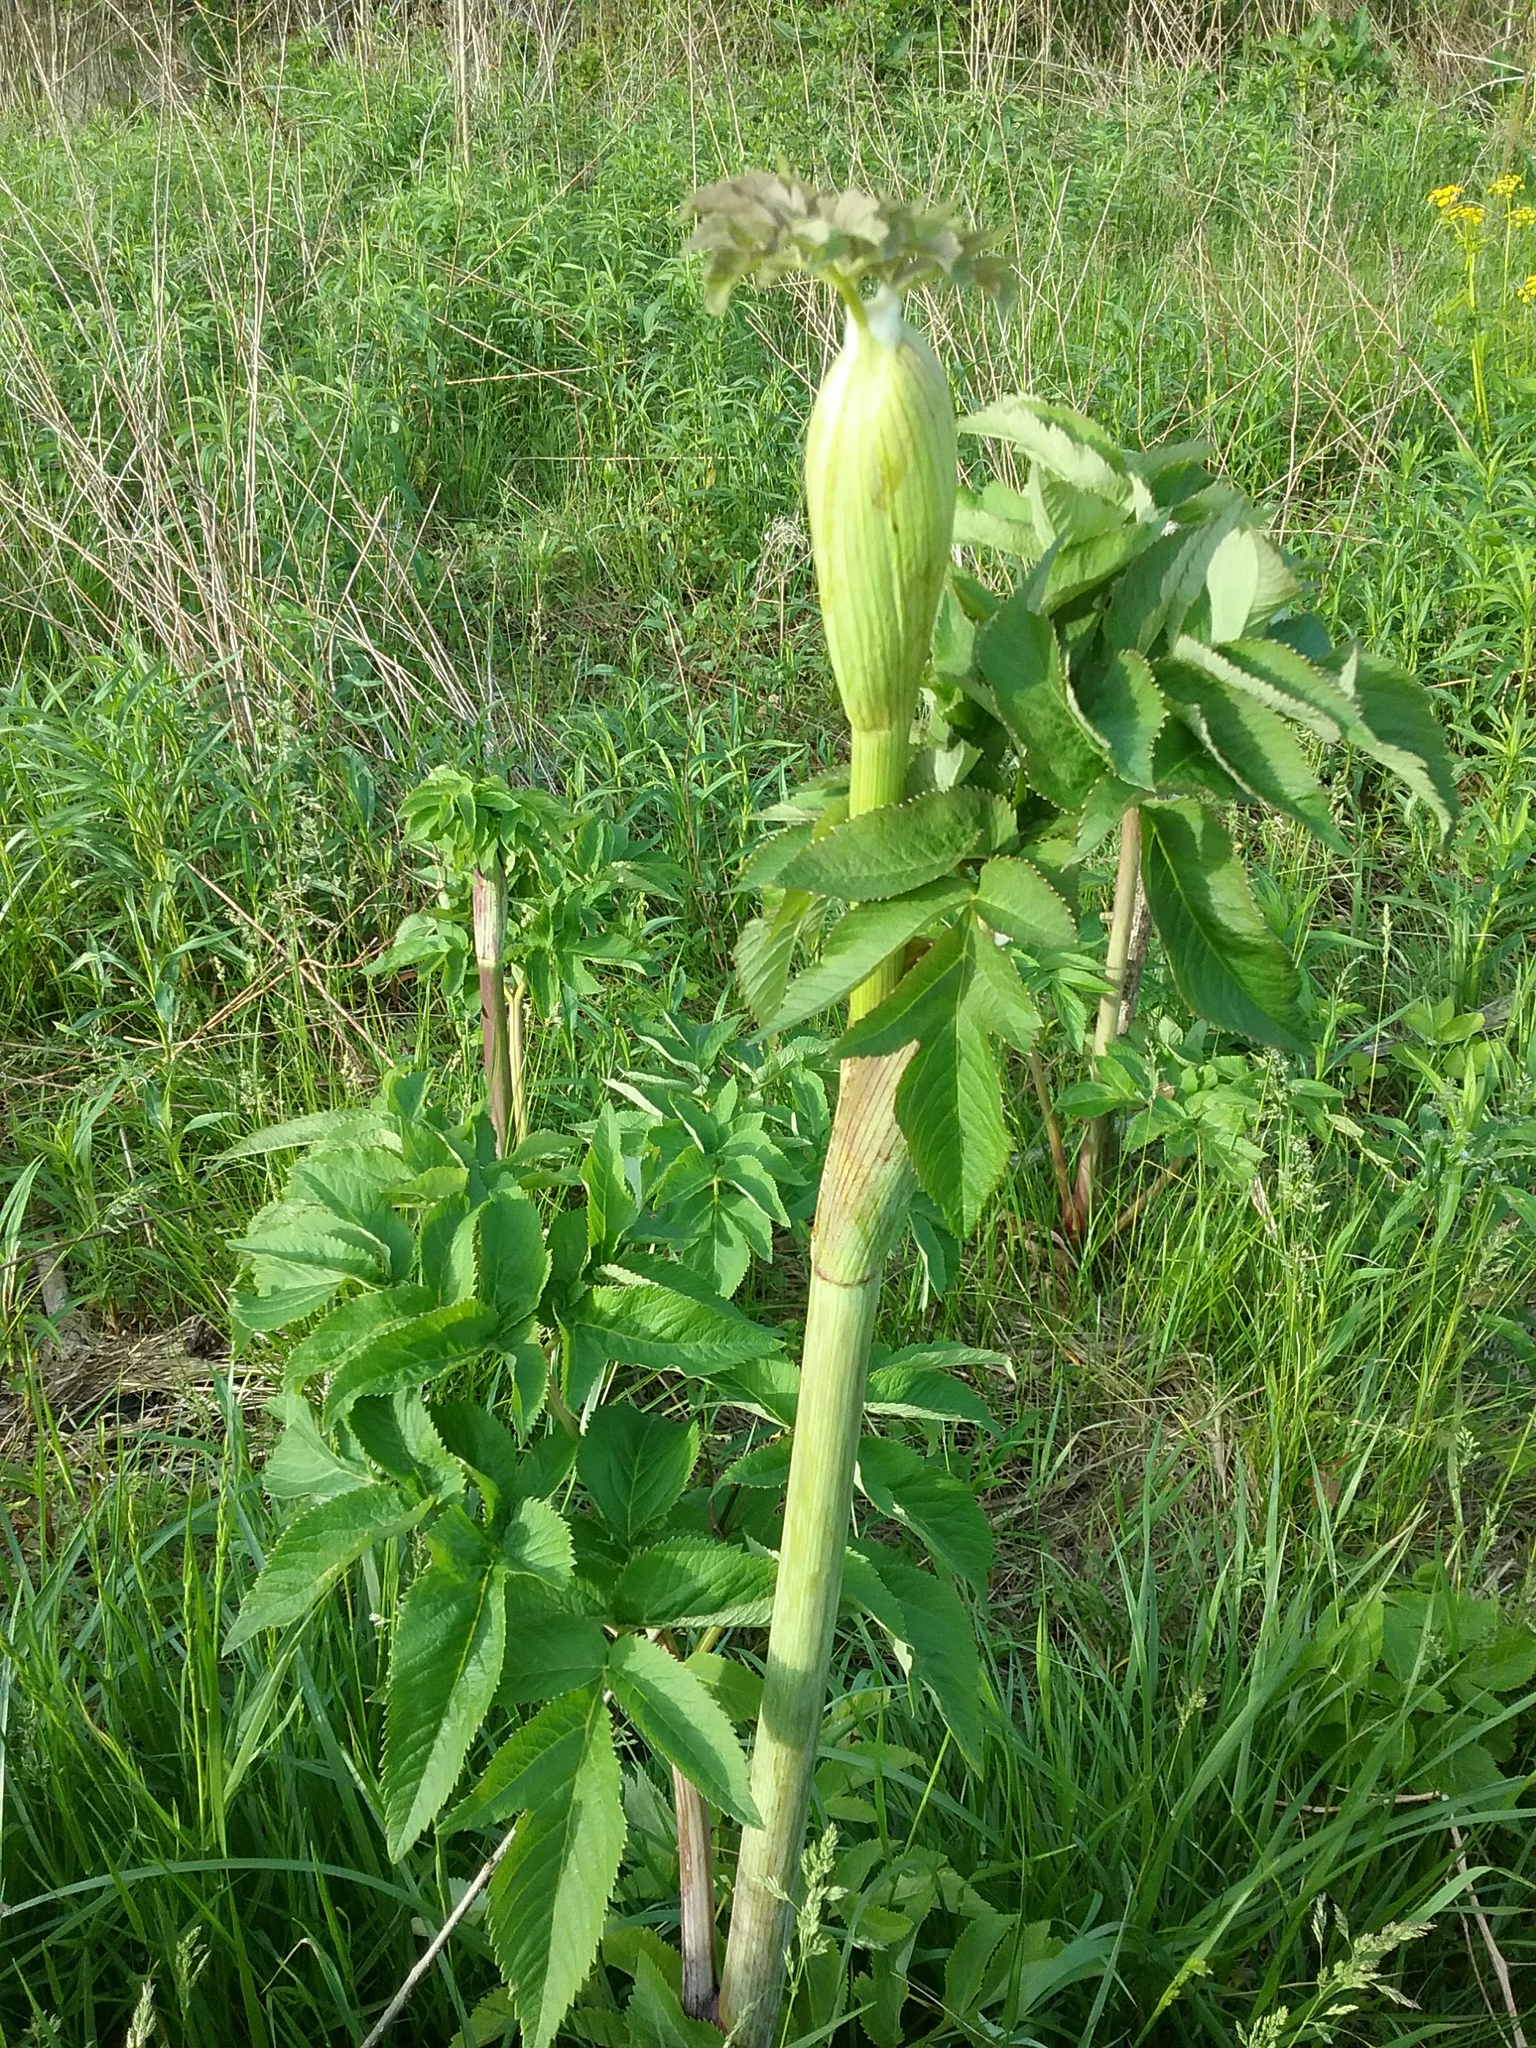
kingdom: Plantae
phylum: Tracheophyta
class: Magnoliopsida
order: Apiales
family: Apiaceae
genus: Angelica
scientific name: Angelica atropurpurea
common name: Great angelica
